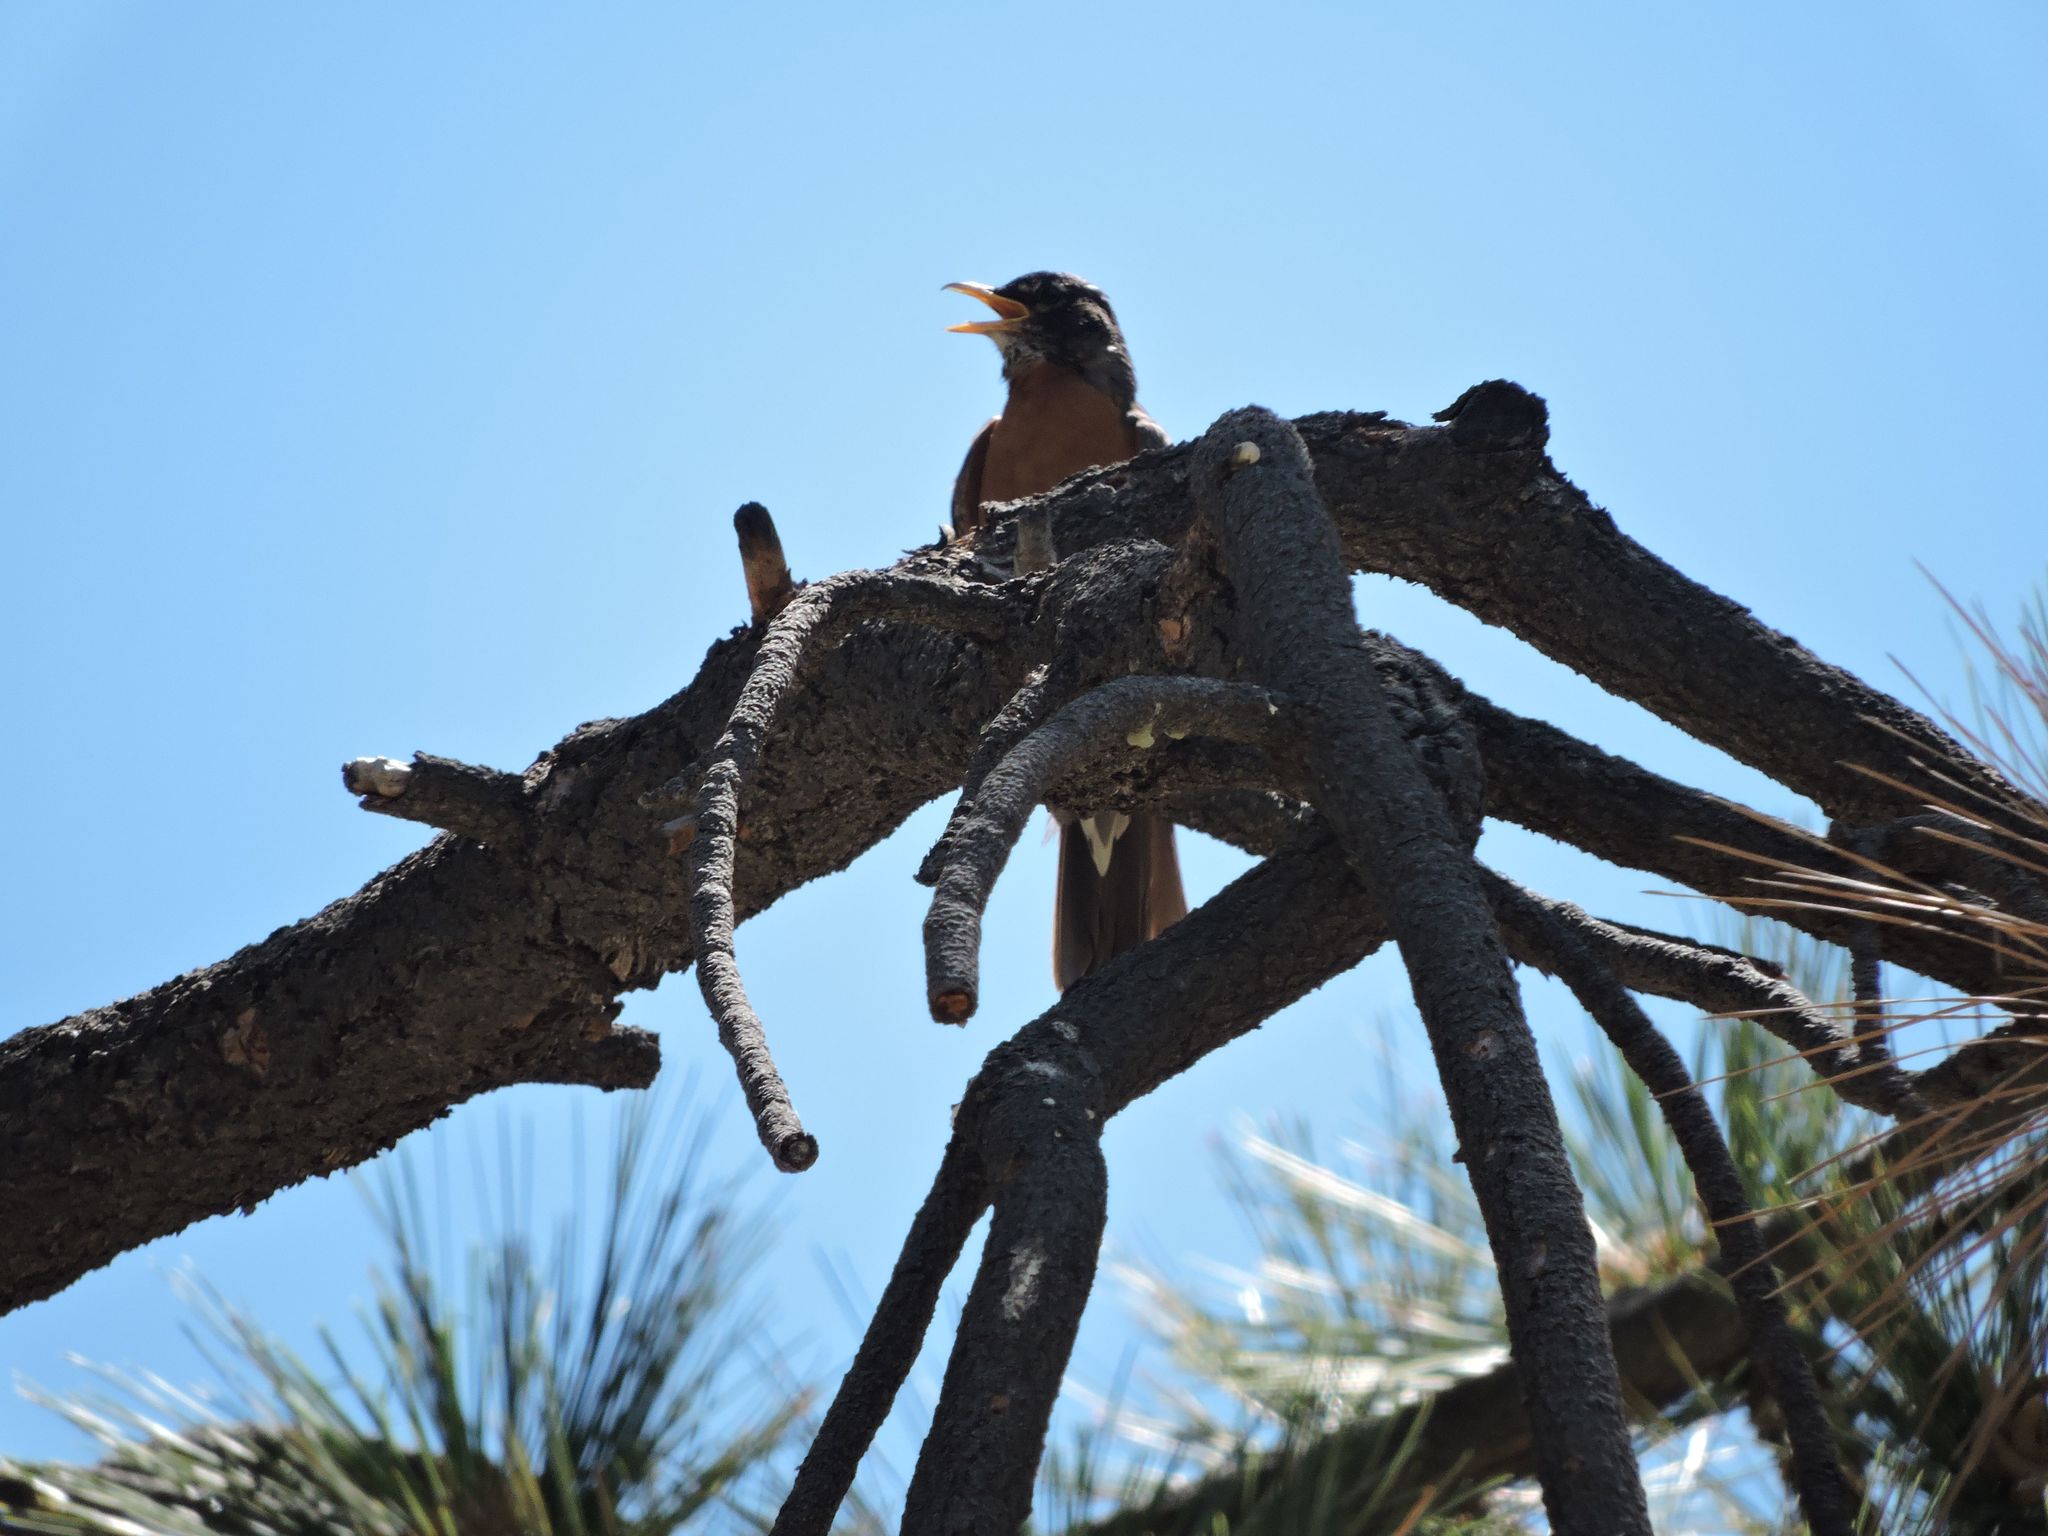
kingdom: Animalia
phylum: Chordata
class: Aves
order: Passeriformes
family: Turdidae
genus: Turdus
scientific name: Turdus migratorius
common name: American robin
